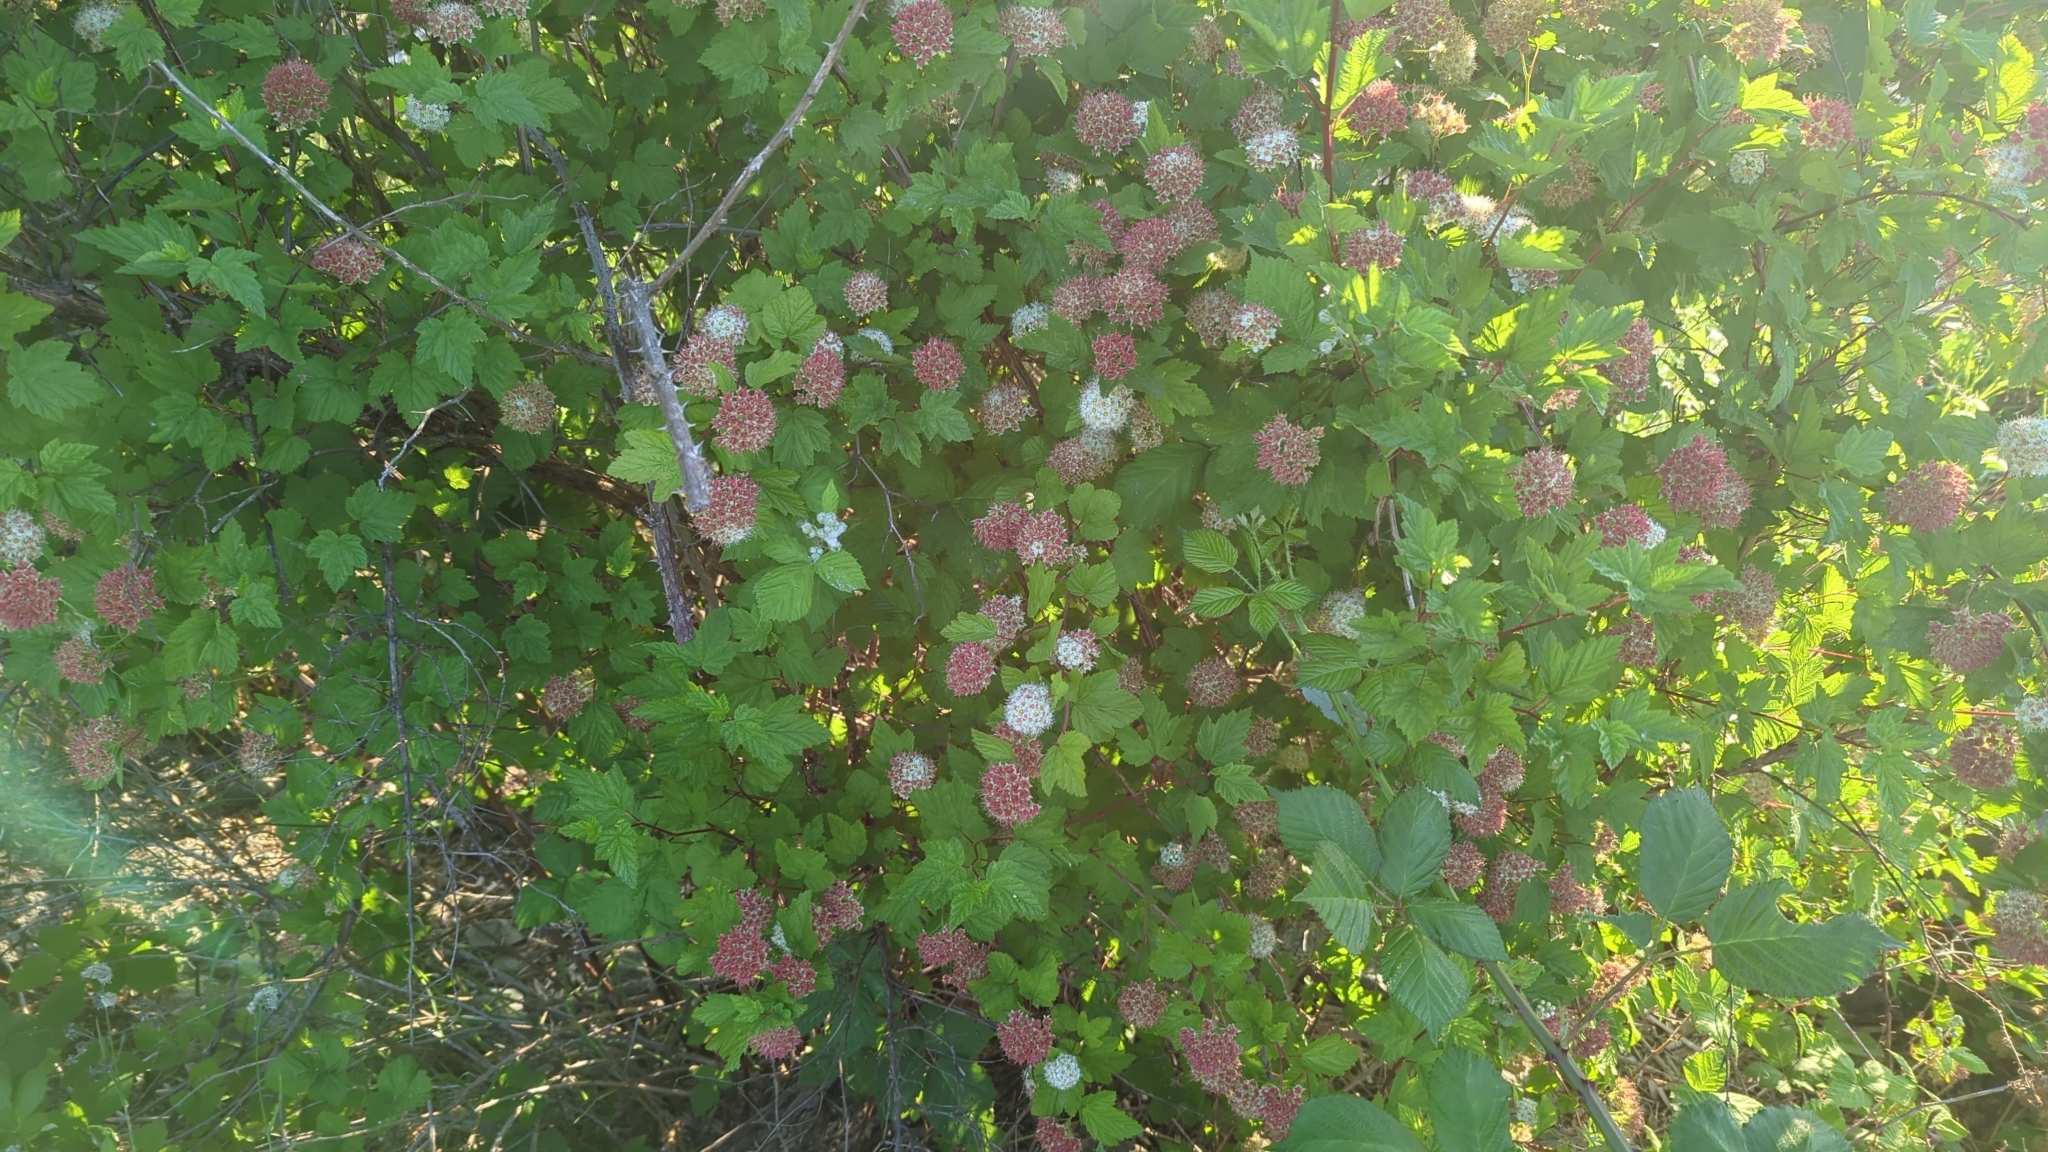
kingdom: Plantae
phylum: Tracheophyta
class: Magnoliopsida
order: Rosales
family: Rosaceae
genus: Physocarpus
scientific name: Physocarpus capitatus
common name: Pacific ninebark
